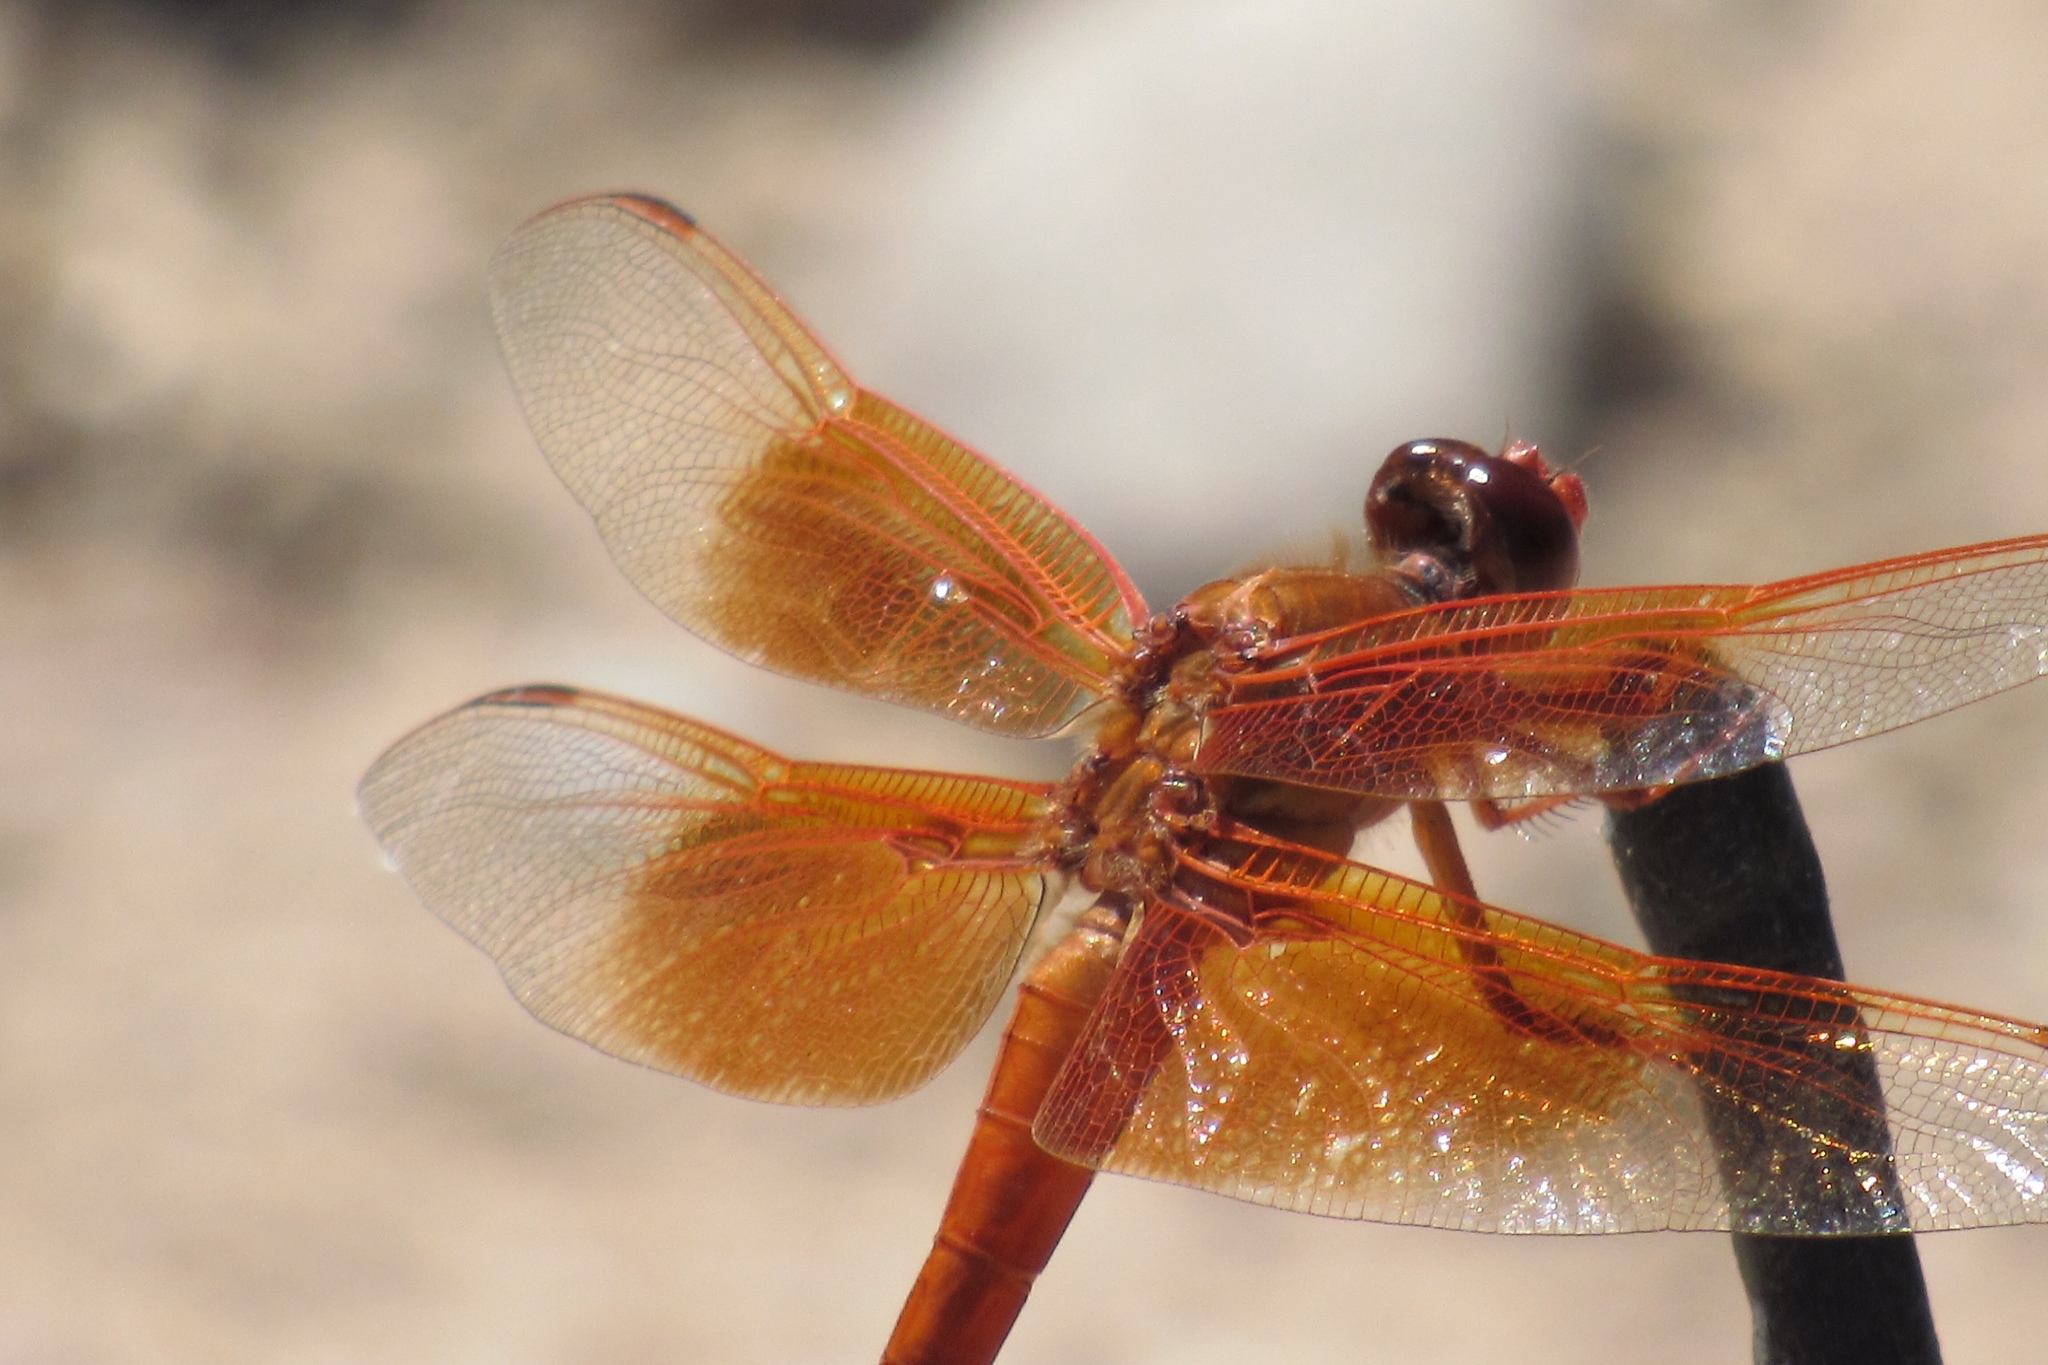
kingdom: Animalia
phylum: Arthropoda
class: Insecta
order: Odonata
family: Libellulidae
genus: Libellula
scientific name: Libellula saturata
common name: Flame skimmer
